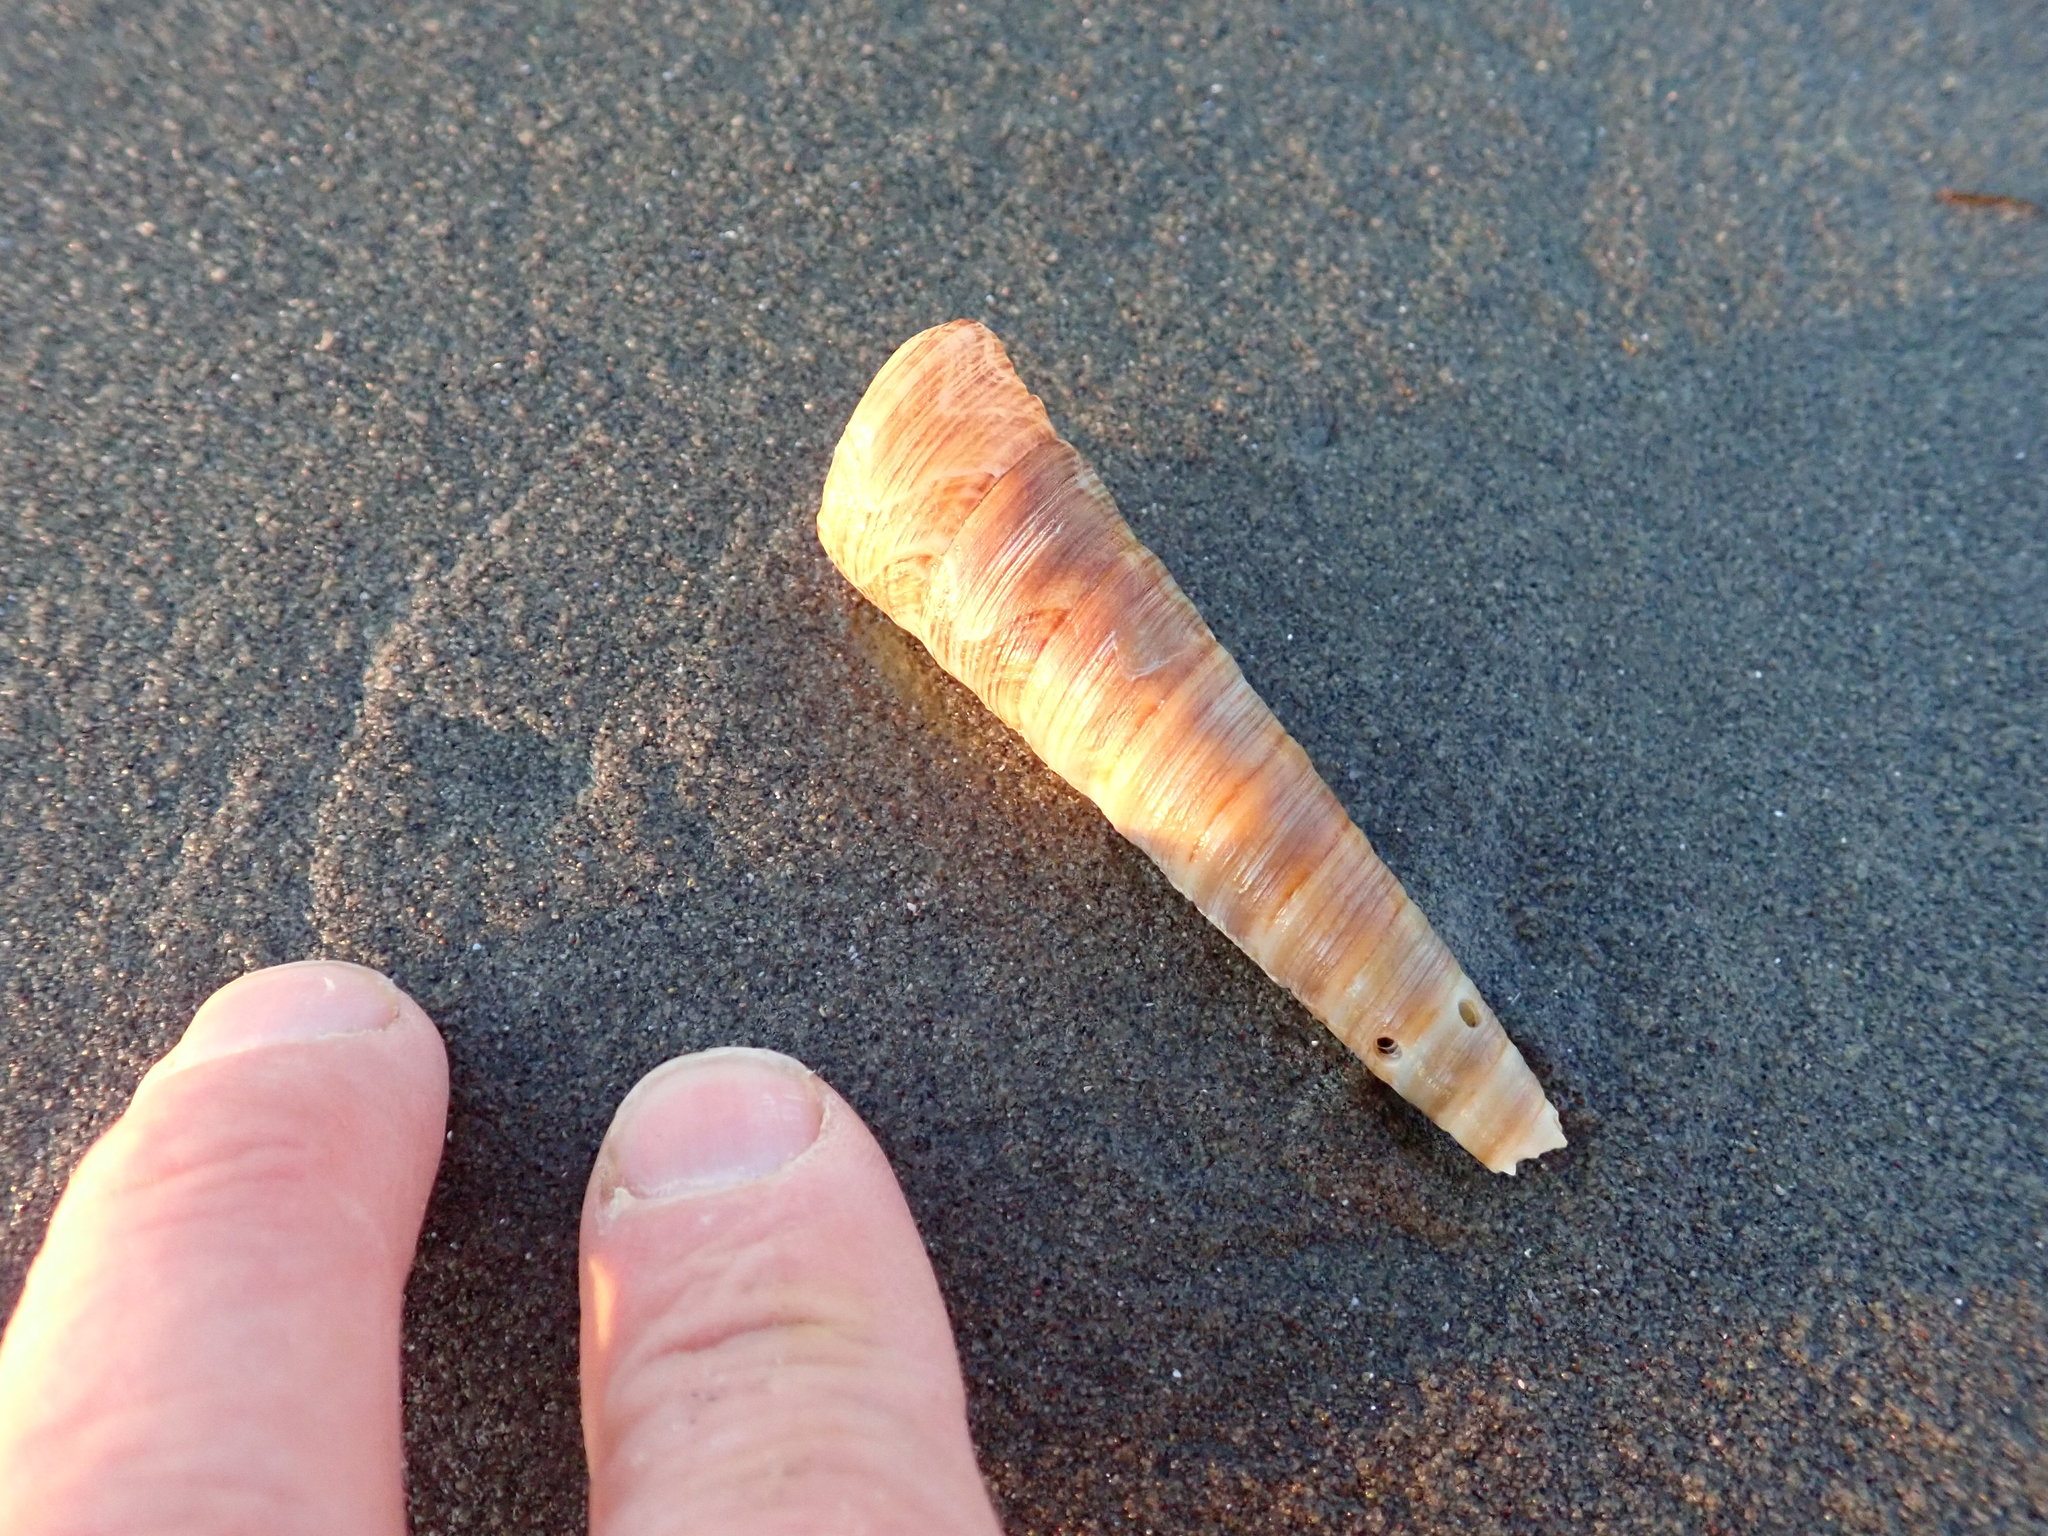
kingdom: Animalia
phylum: Mollusca
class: Gastropoda
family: Turritellidae
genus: Zeacolpus
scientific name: Zeacolpus vittatus
